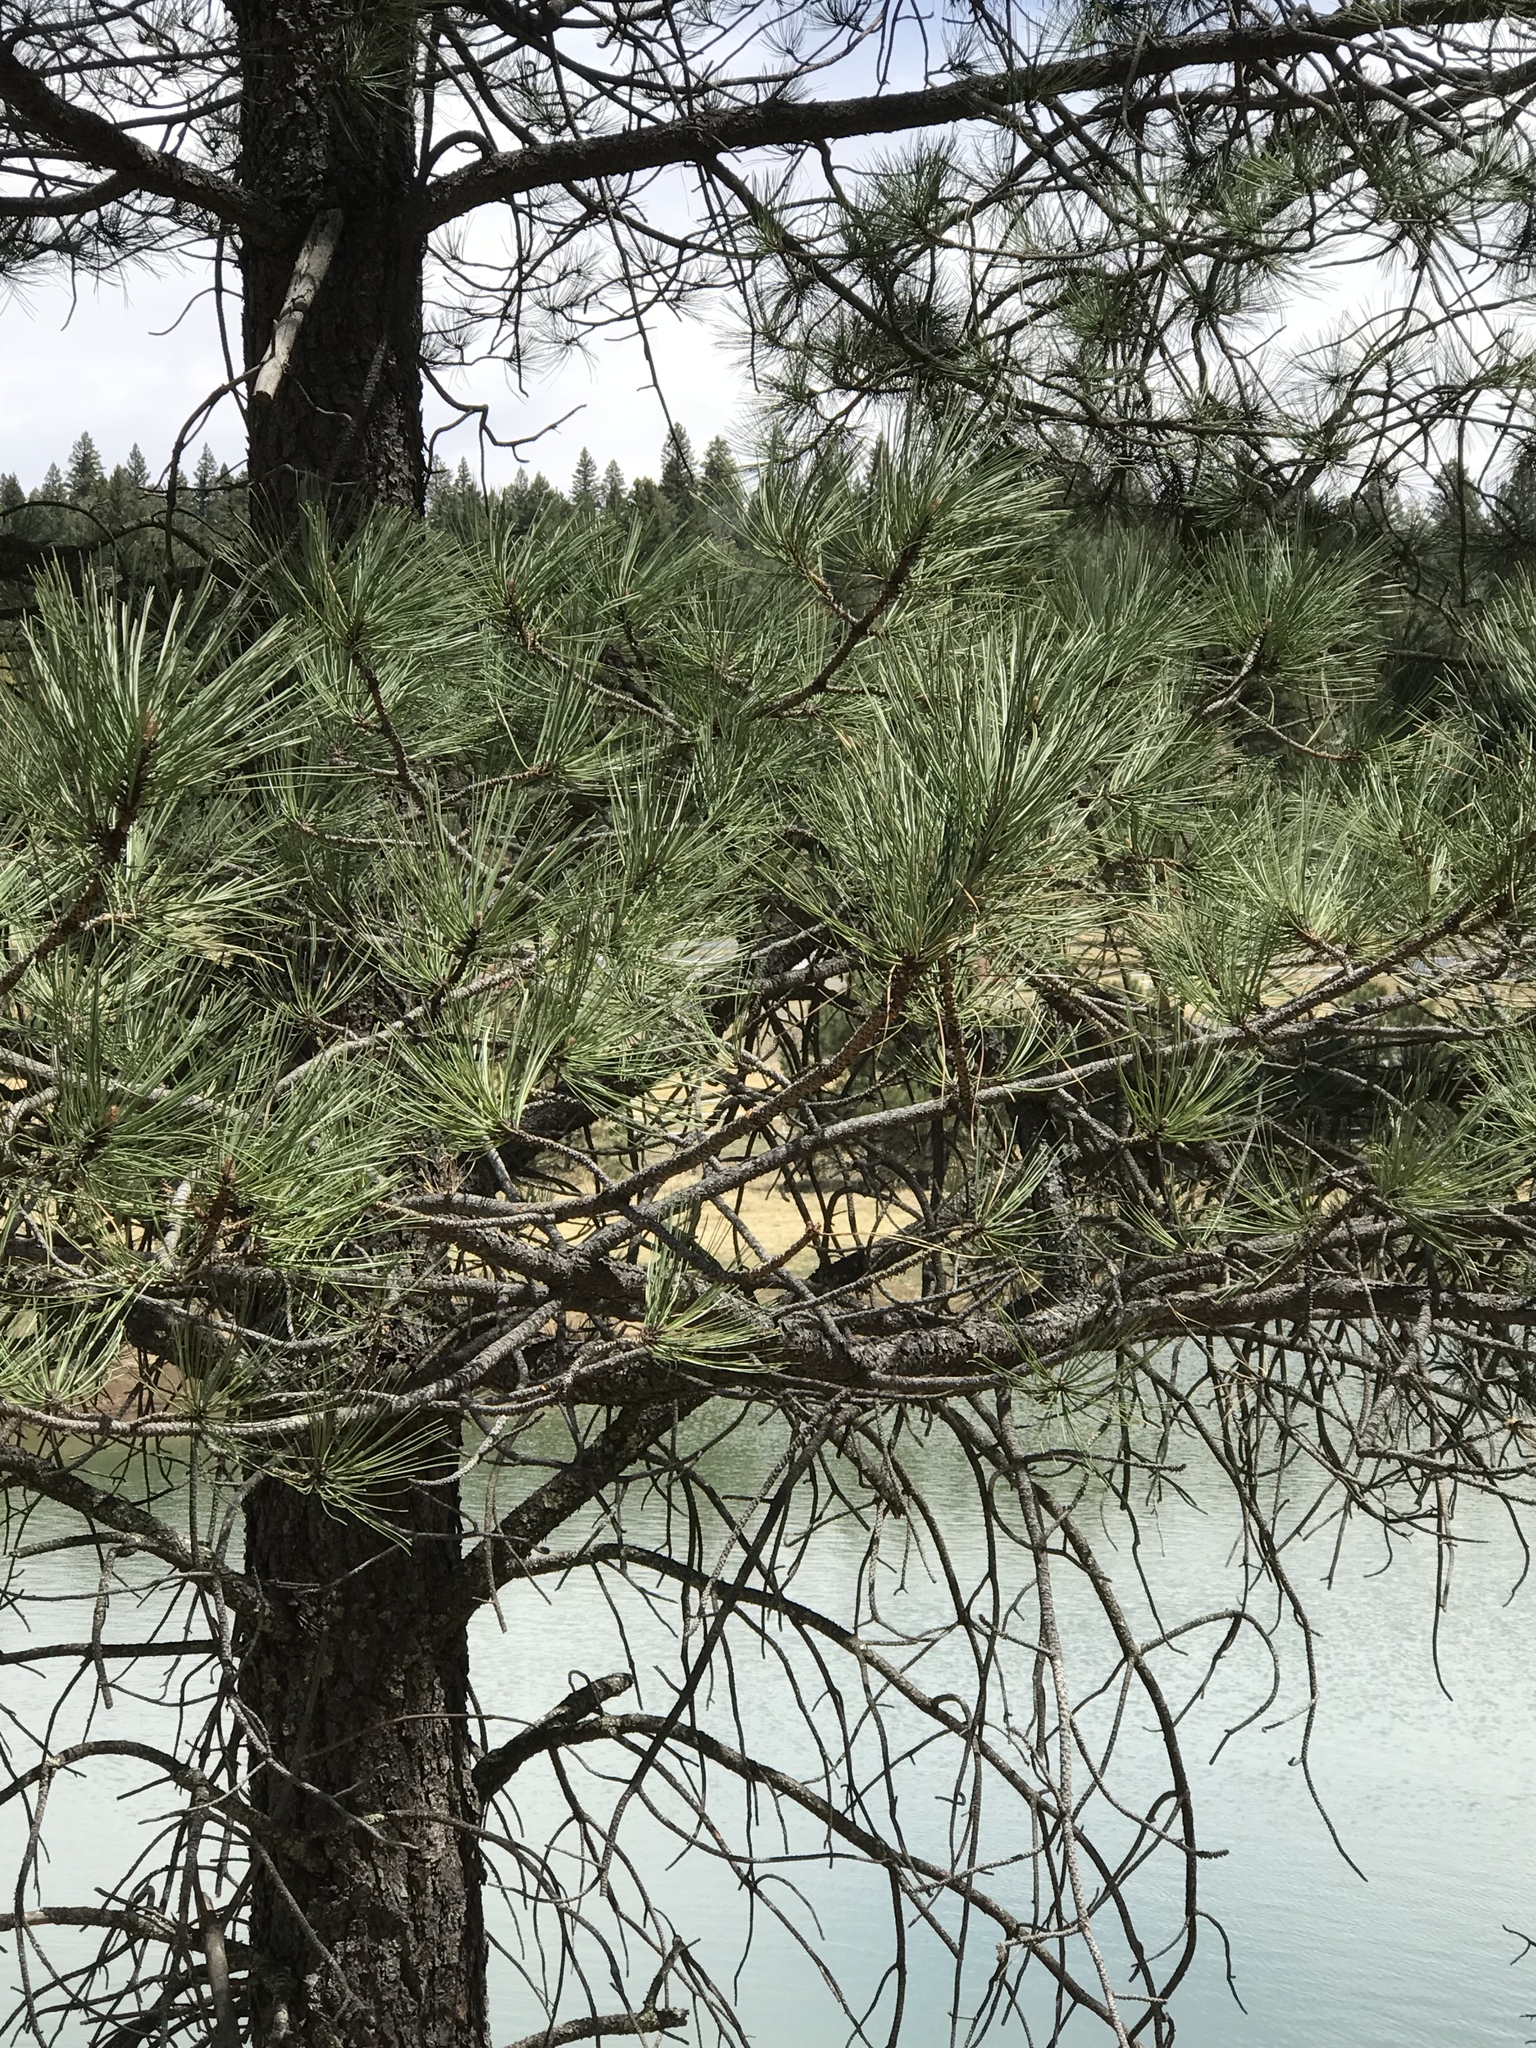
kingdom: Plantae
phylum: Tracheophyta
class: Pinopsida
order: Pinales
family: Pinaceae
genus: Pinus
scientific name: Pinus ponderosa
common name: Western yellow-pine
